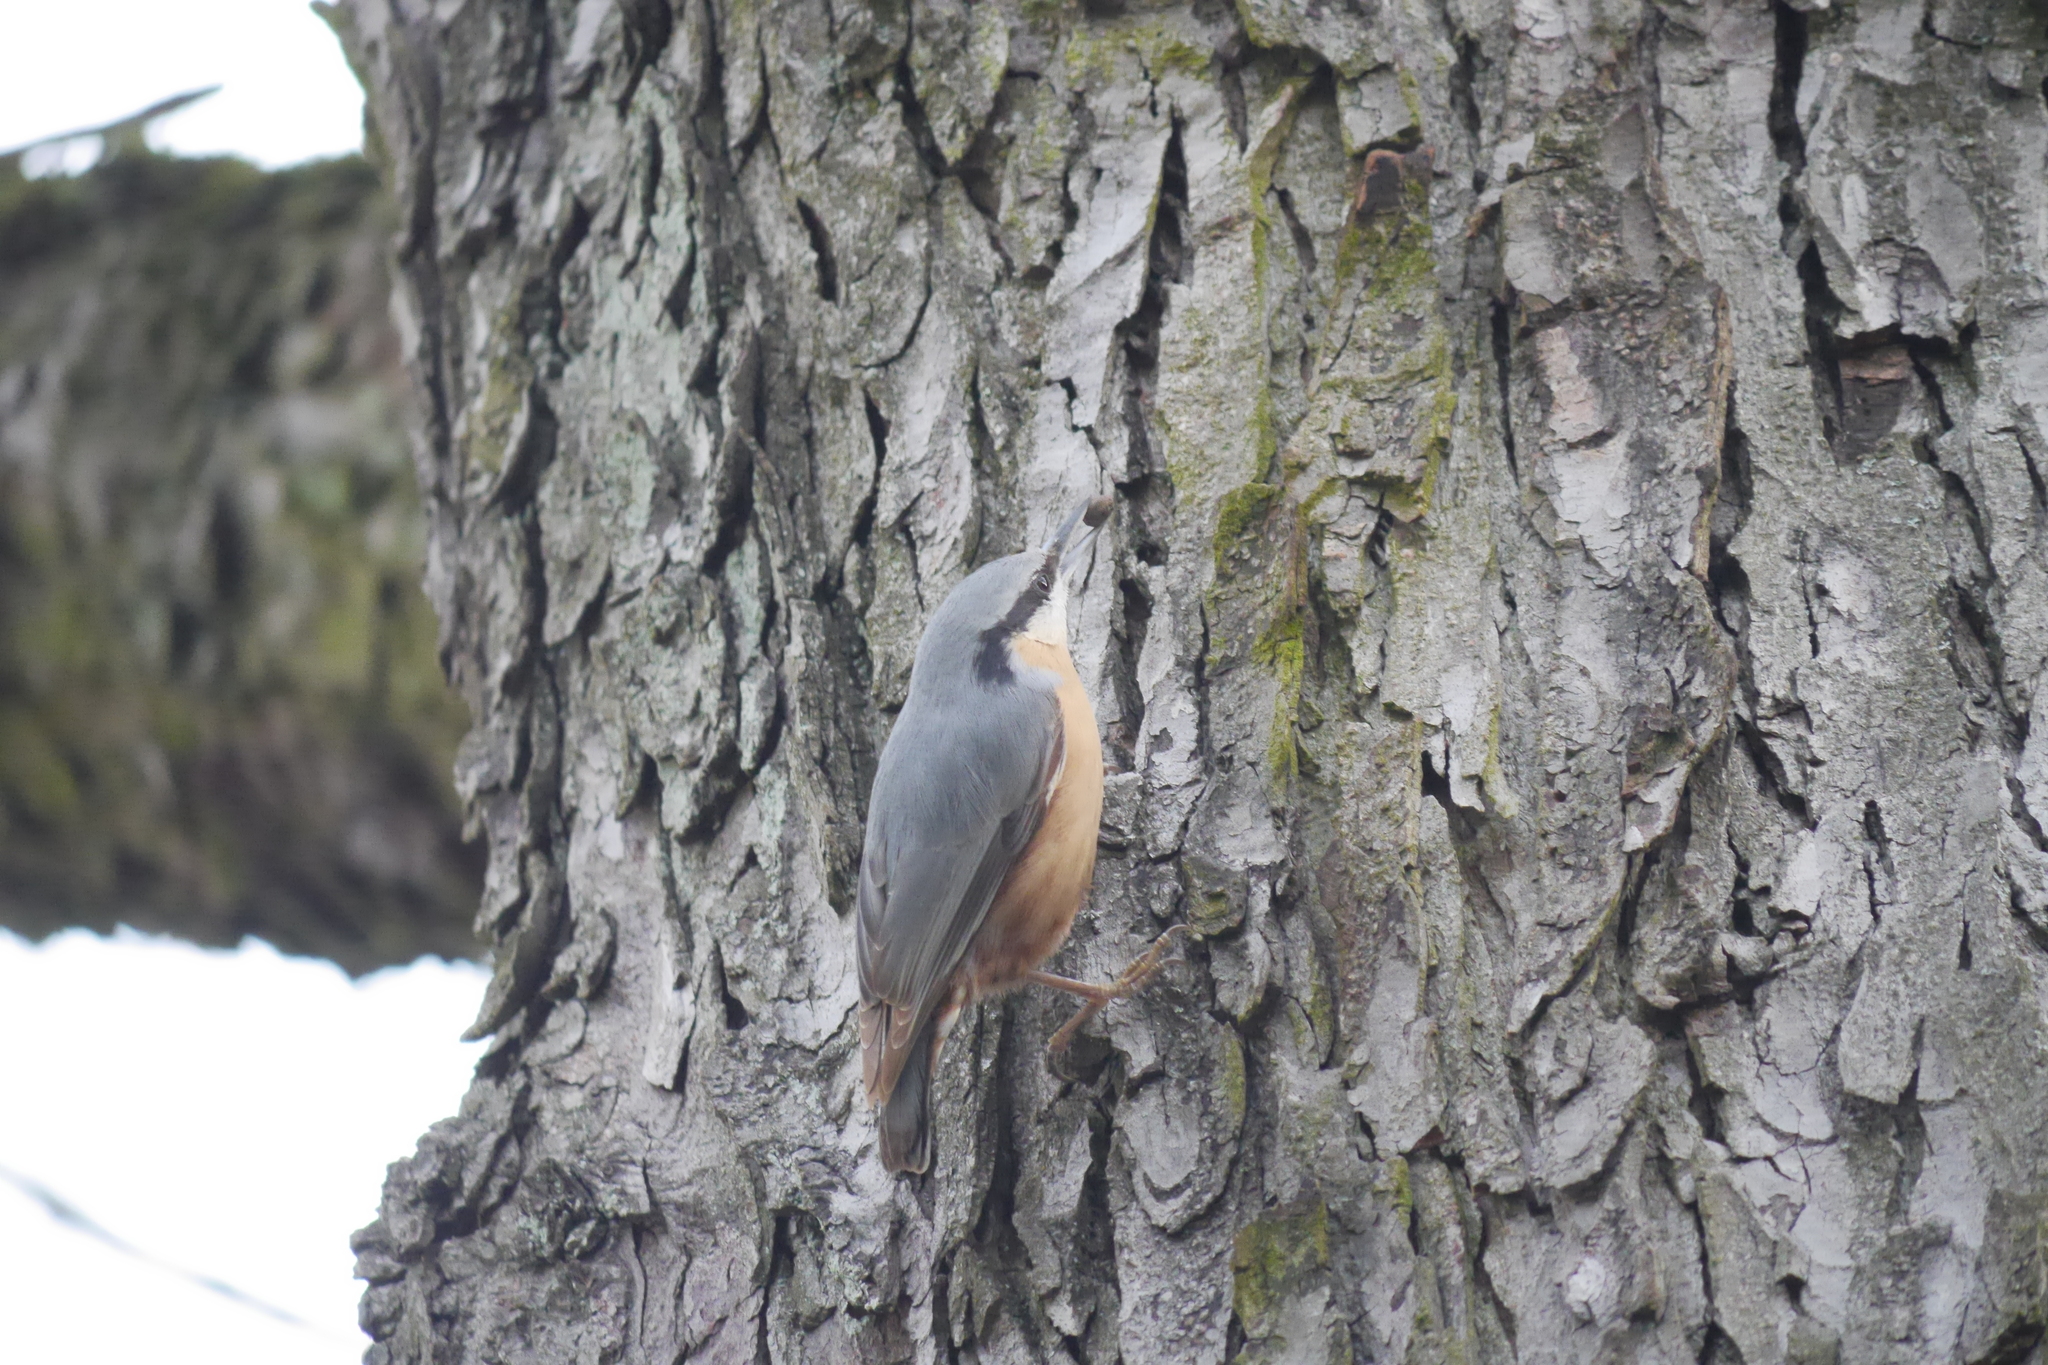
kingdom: Animalia
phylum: Chordata
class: Aves
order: Passeriformes
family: Sittidae
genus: Sitta
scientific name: Sitta europaea
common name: Eurasian nuthatch
